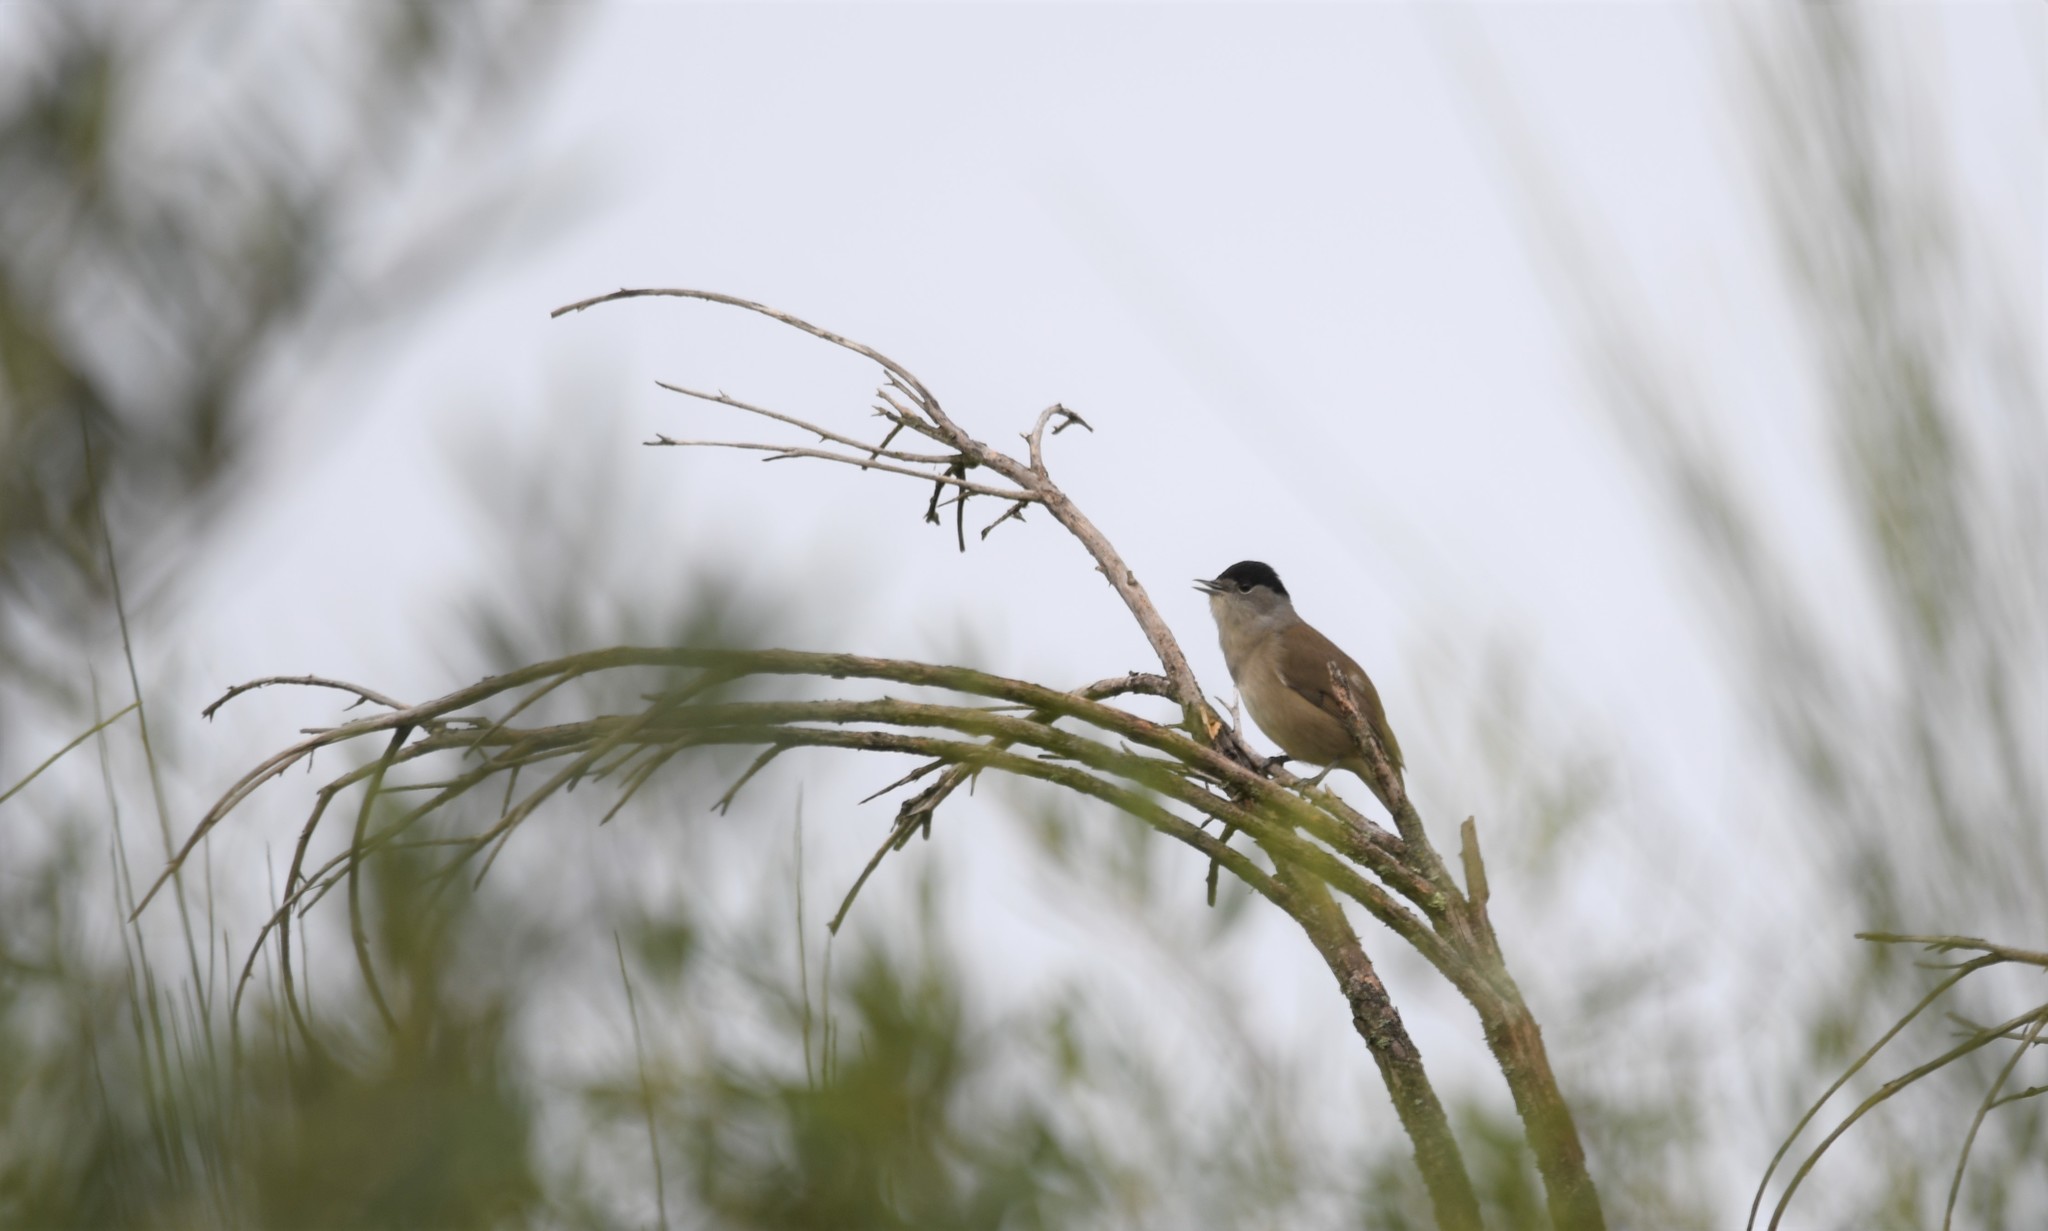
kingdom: Animalia
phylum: Chordata
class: Aves
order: Passeriformes
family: Sylviidae
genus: Sylvia
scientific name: Sylvia atricapilla
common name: Eurasian blackcap
